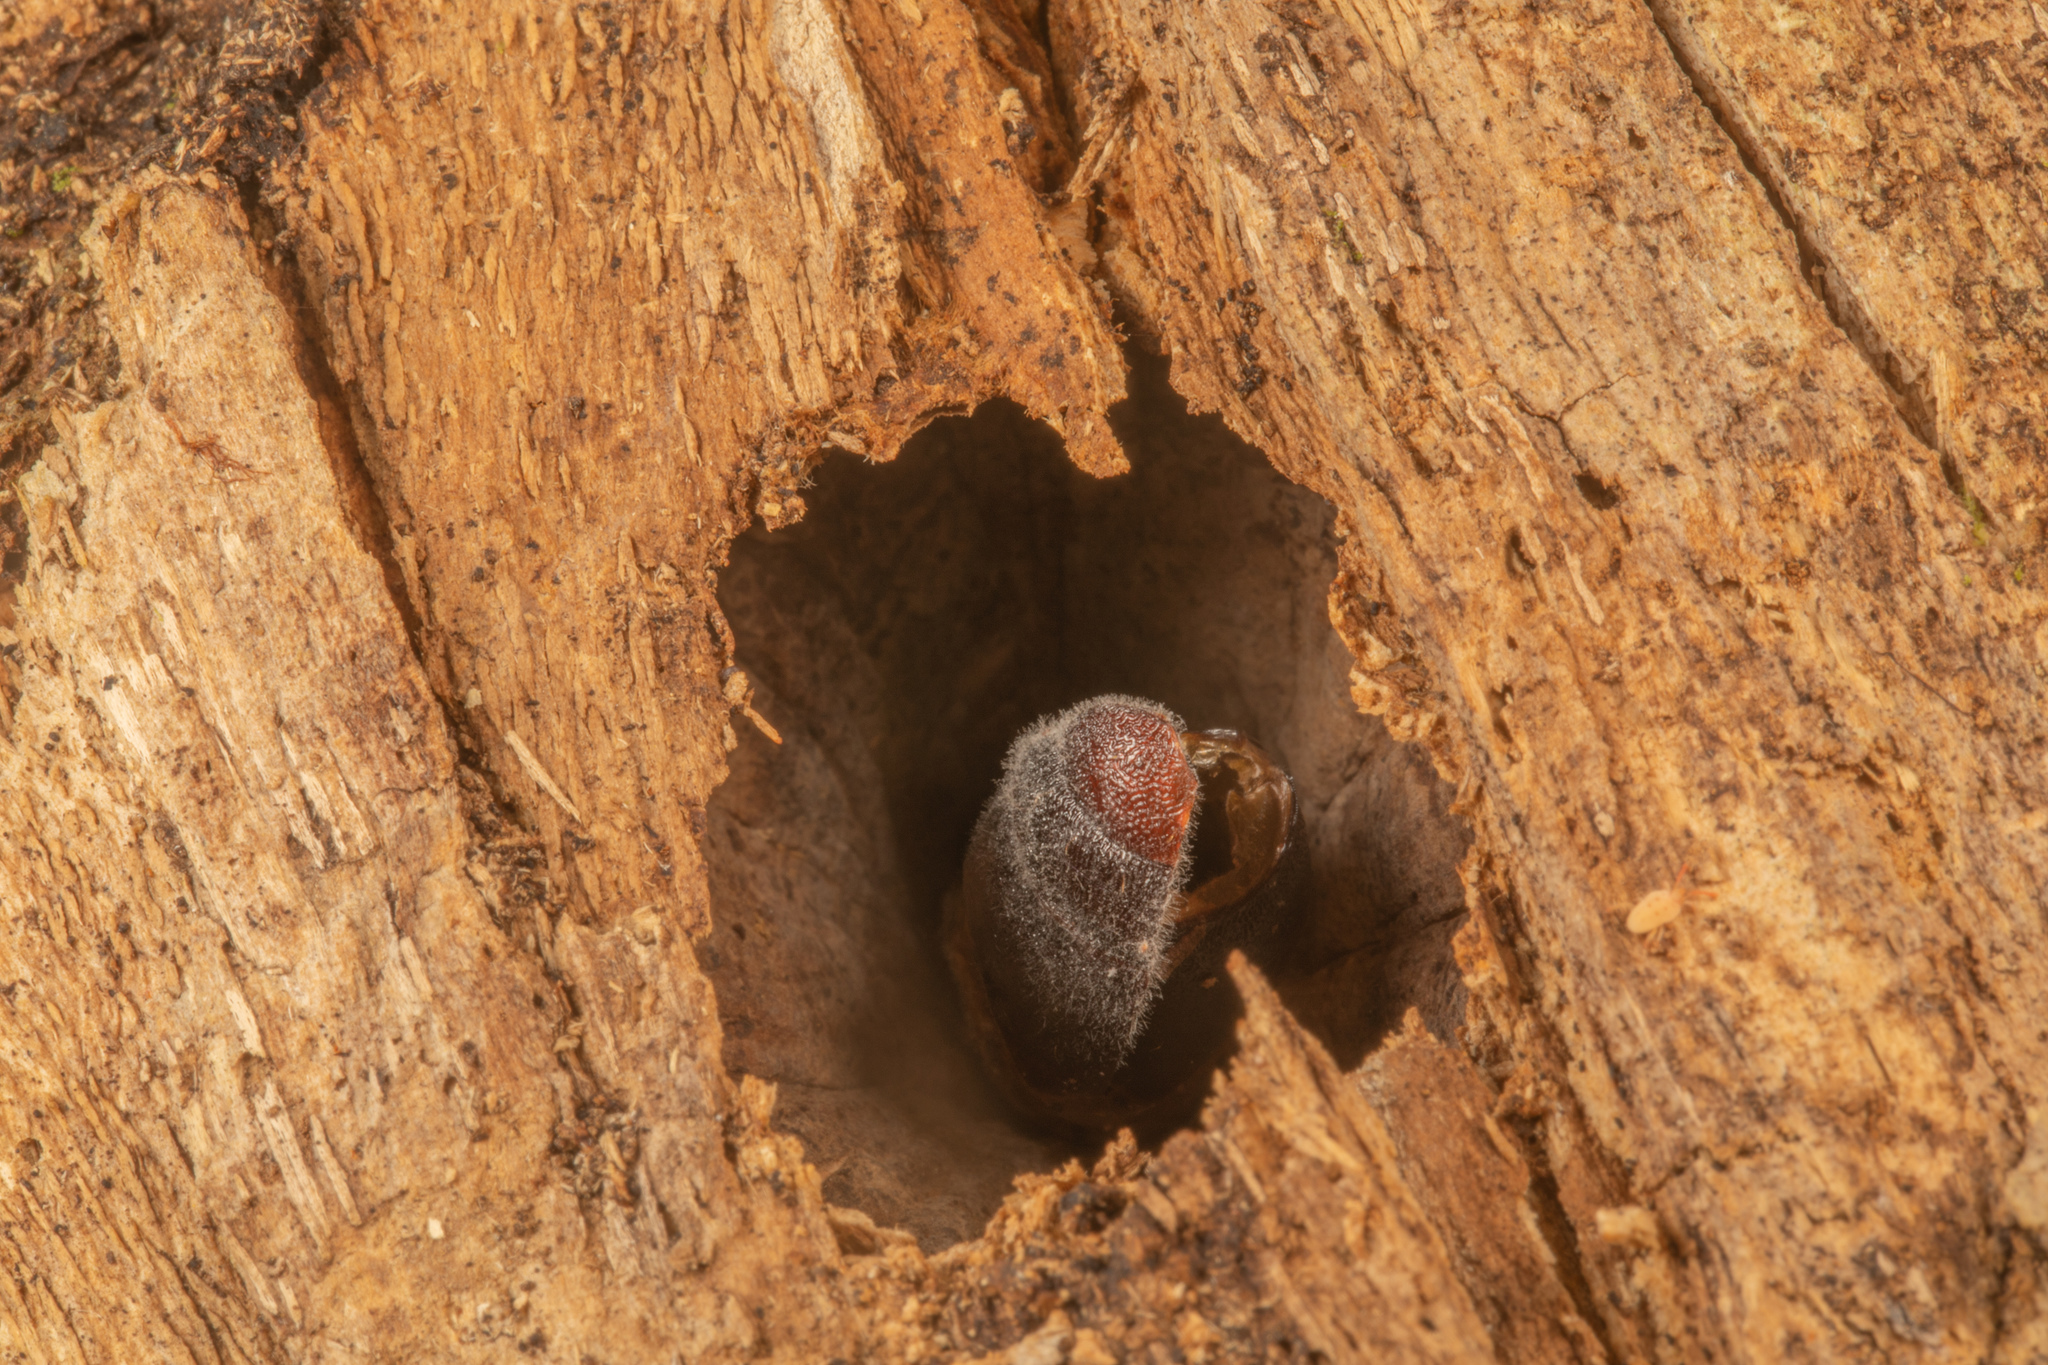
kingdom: Animalia
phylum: Arthropoda
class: Insecta
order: Lepidoptera
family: Hepialidae
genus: Aenetus
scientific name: Aenetus virescens
